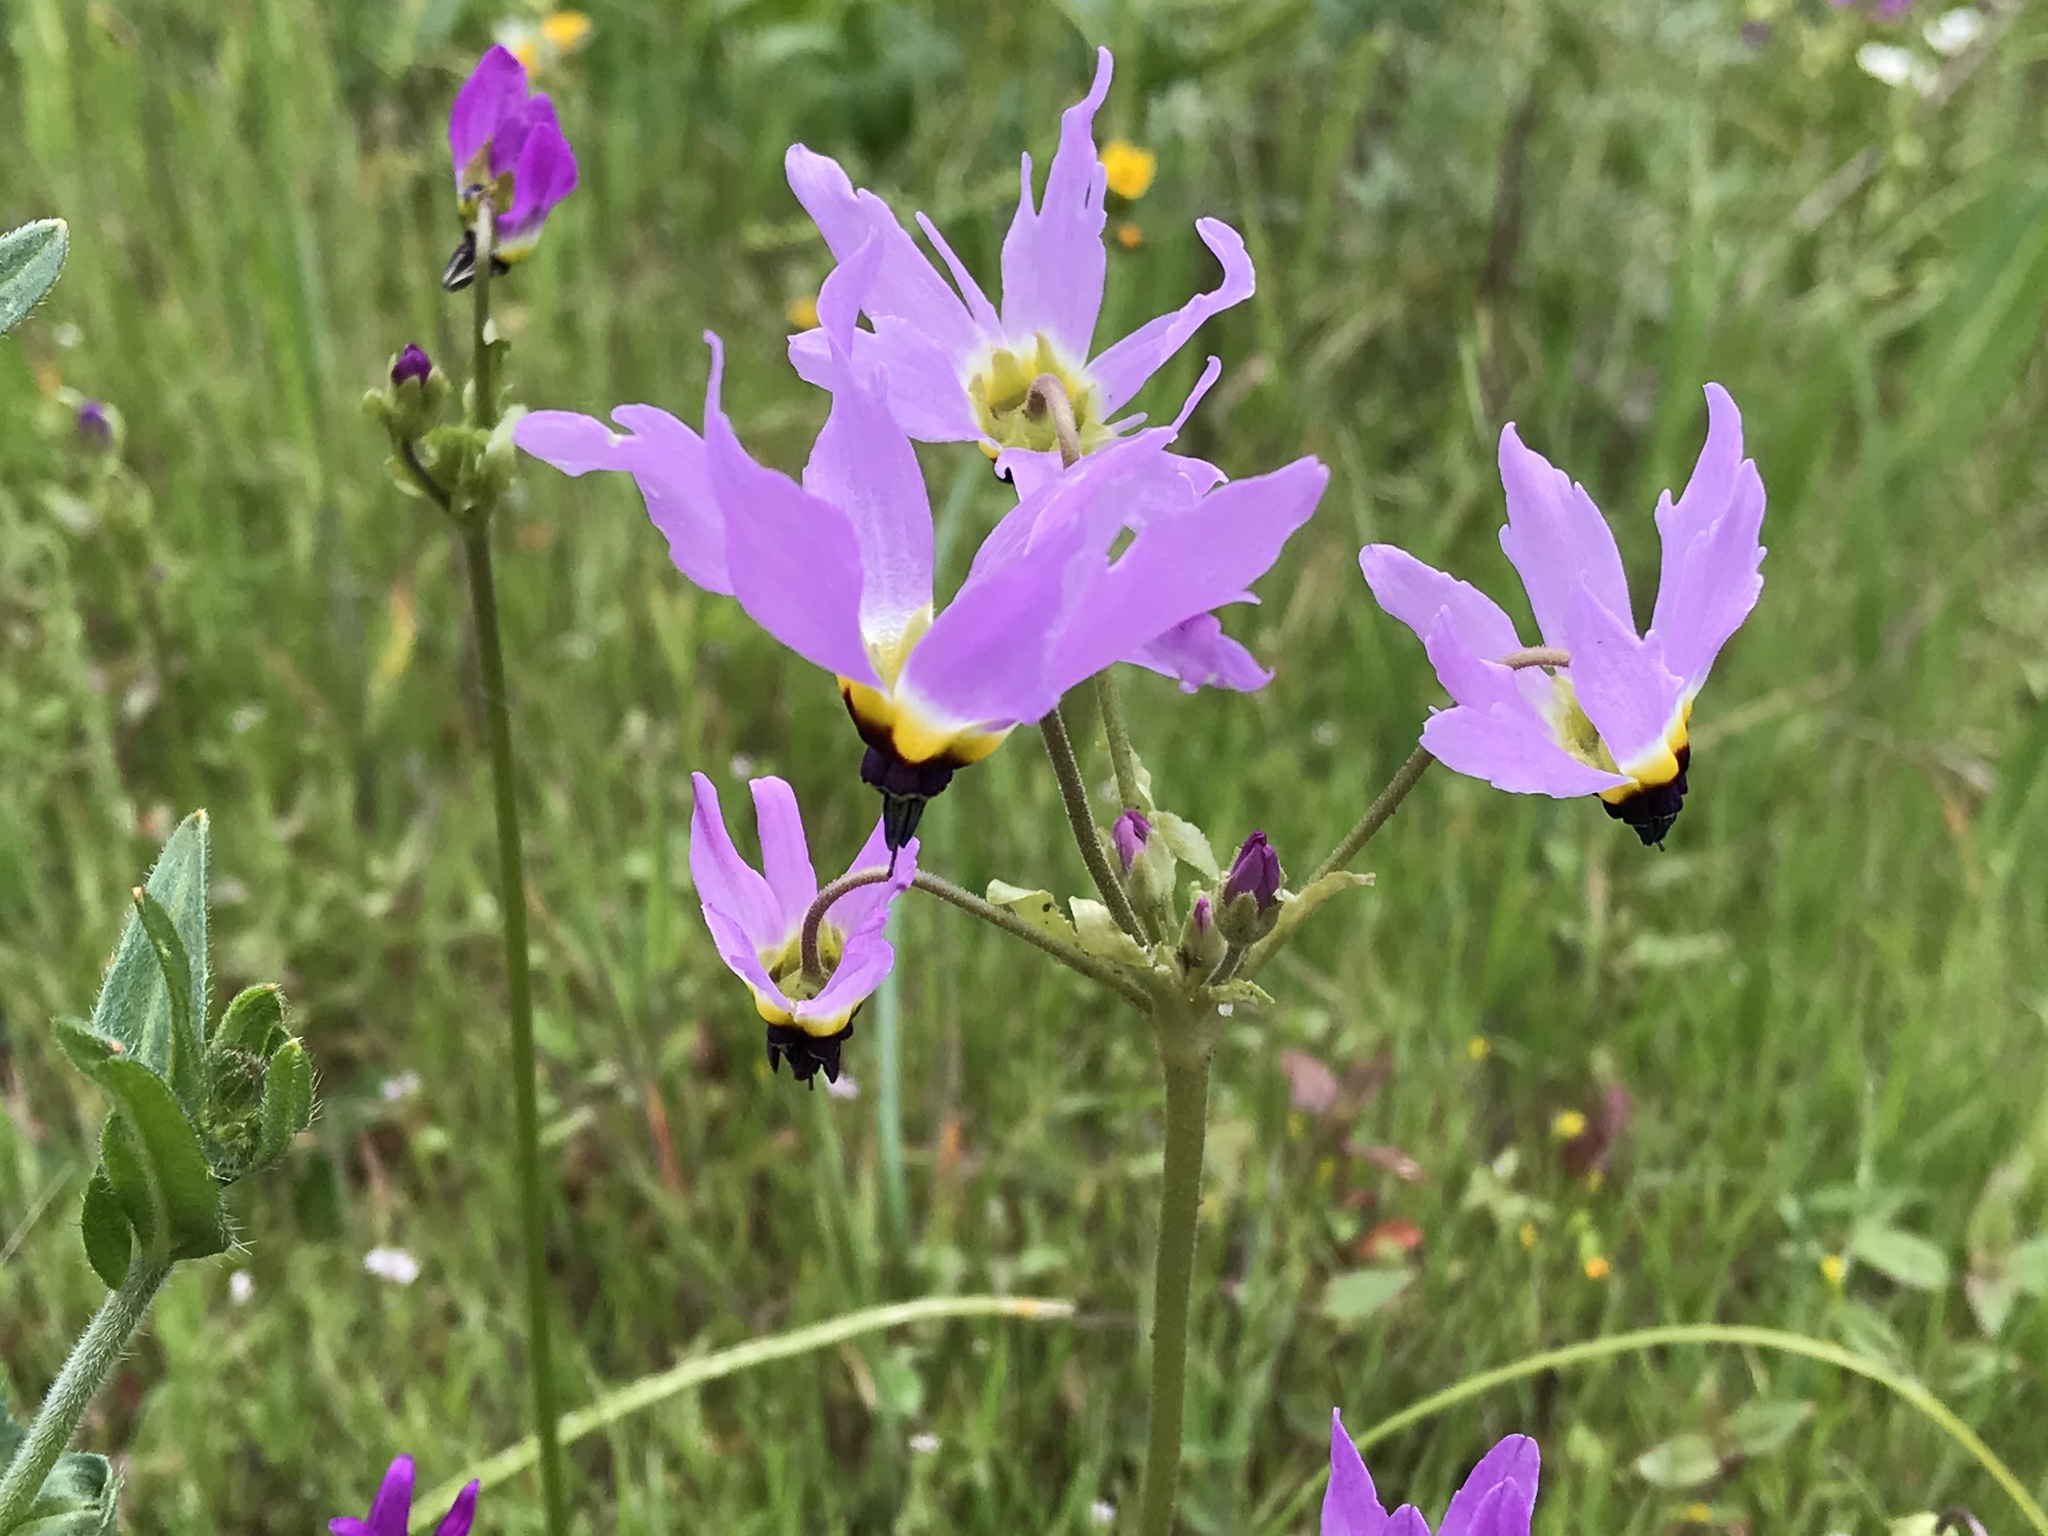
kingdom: Plantae
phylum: Tracheophyta
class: Magnoliopsida
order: Ericales
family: Primulaceae
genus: Dodecatheon
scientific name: Dodecatheon clevelandii
